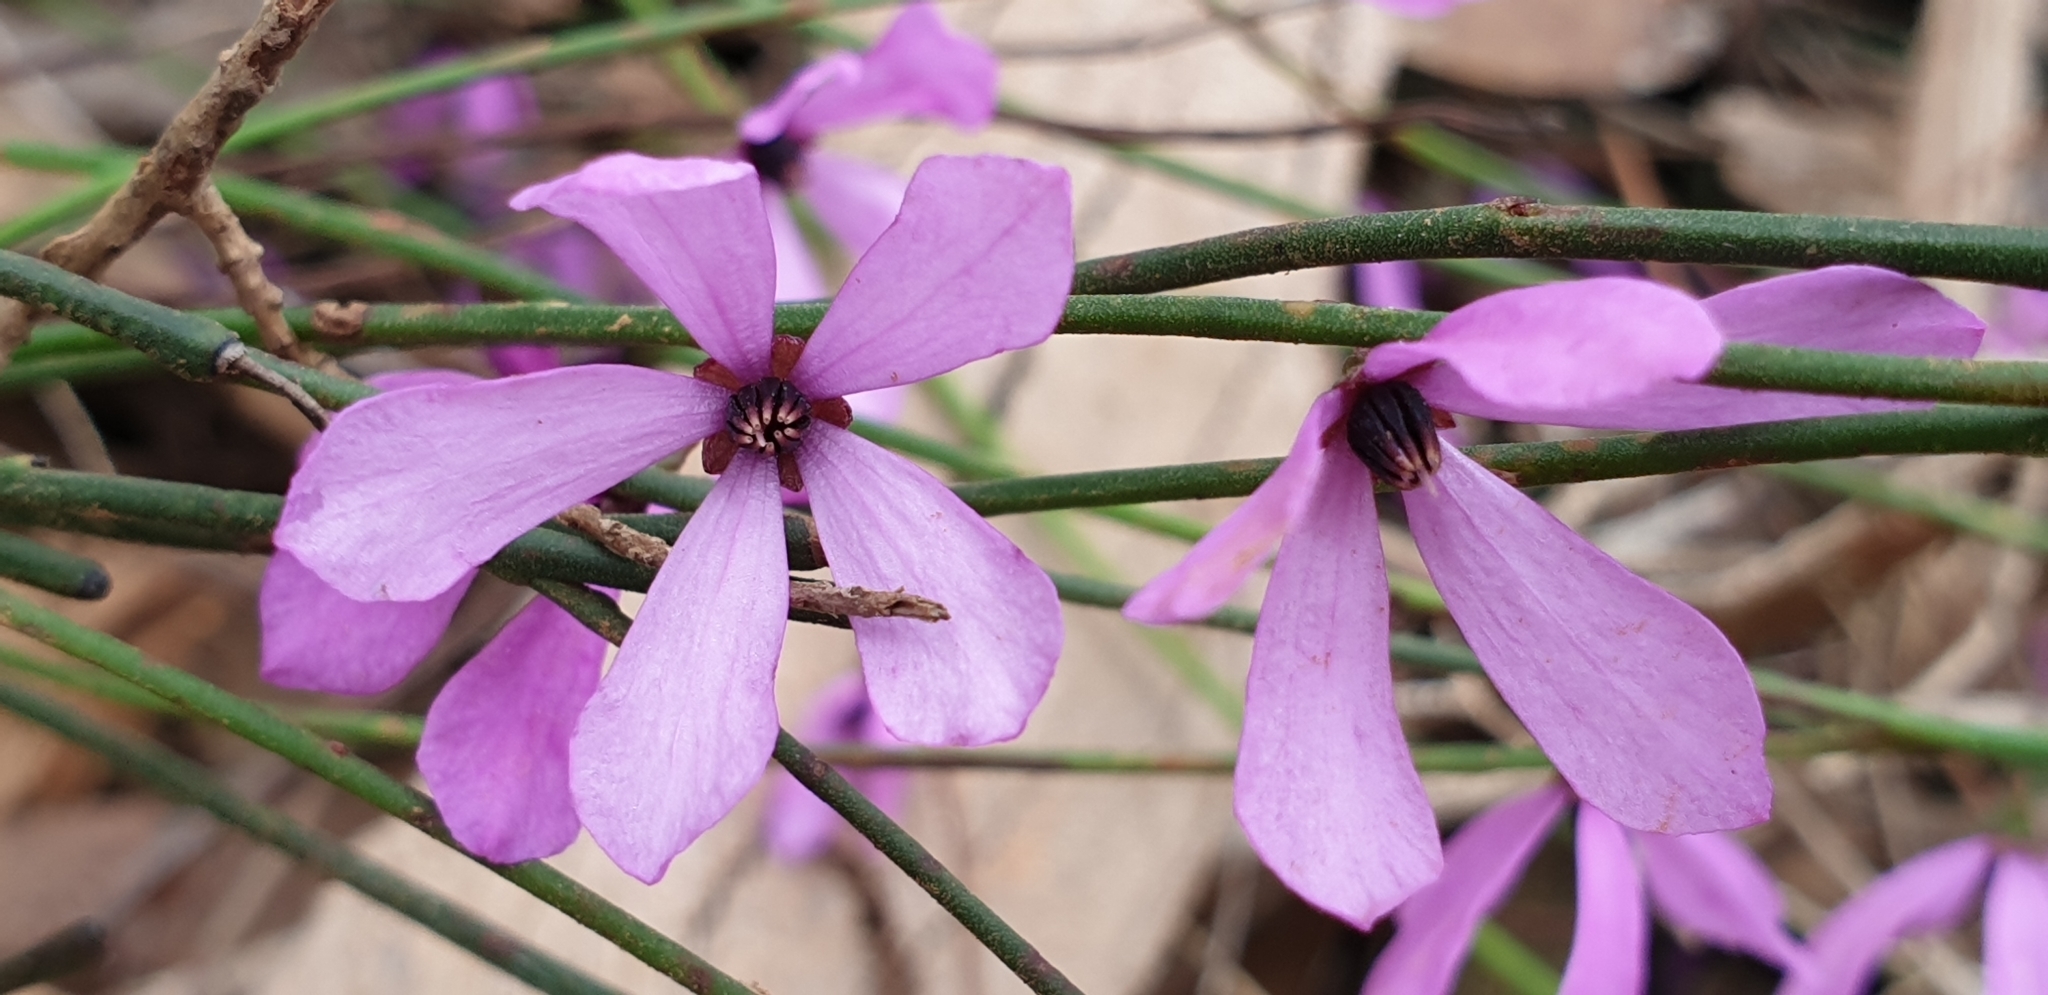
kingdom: Plantae
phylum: Tracheophyta
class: Magnoliopsida
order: Oxalidales
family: Elaeocarpaceae
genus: Tetratheca
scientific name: Tetratheca halmaturina
